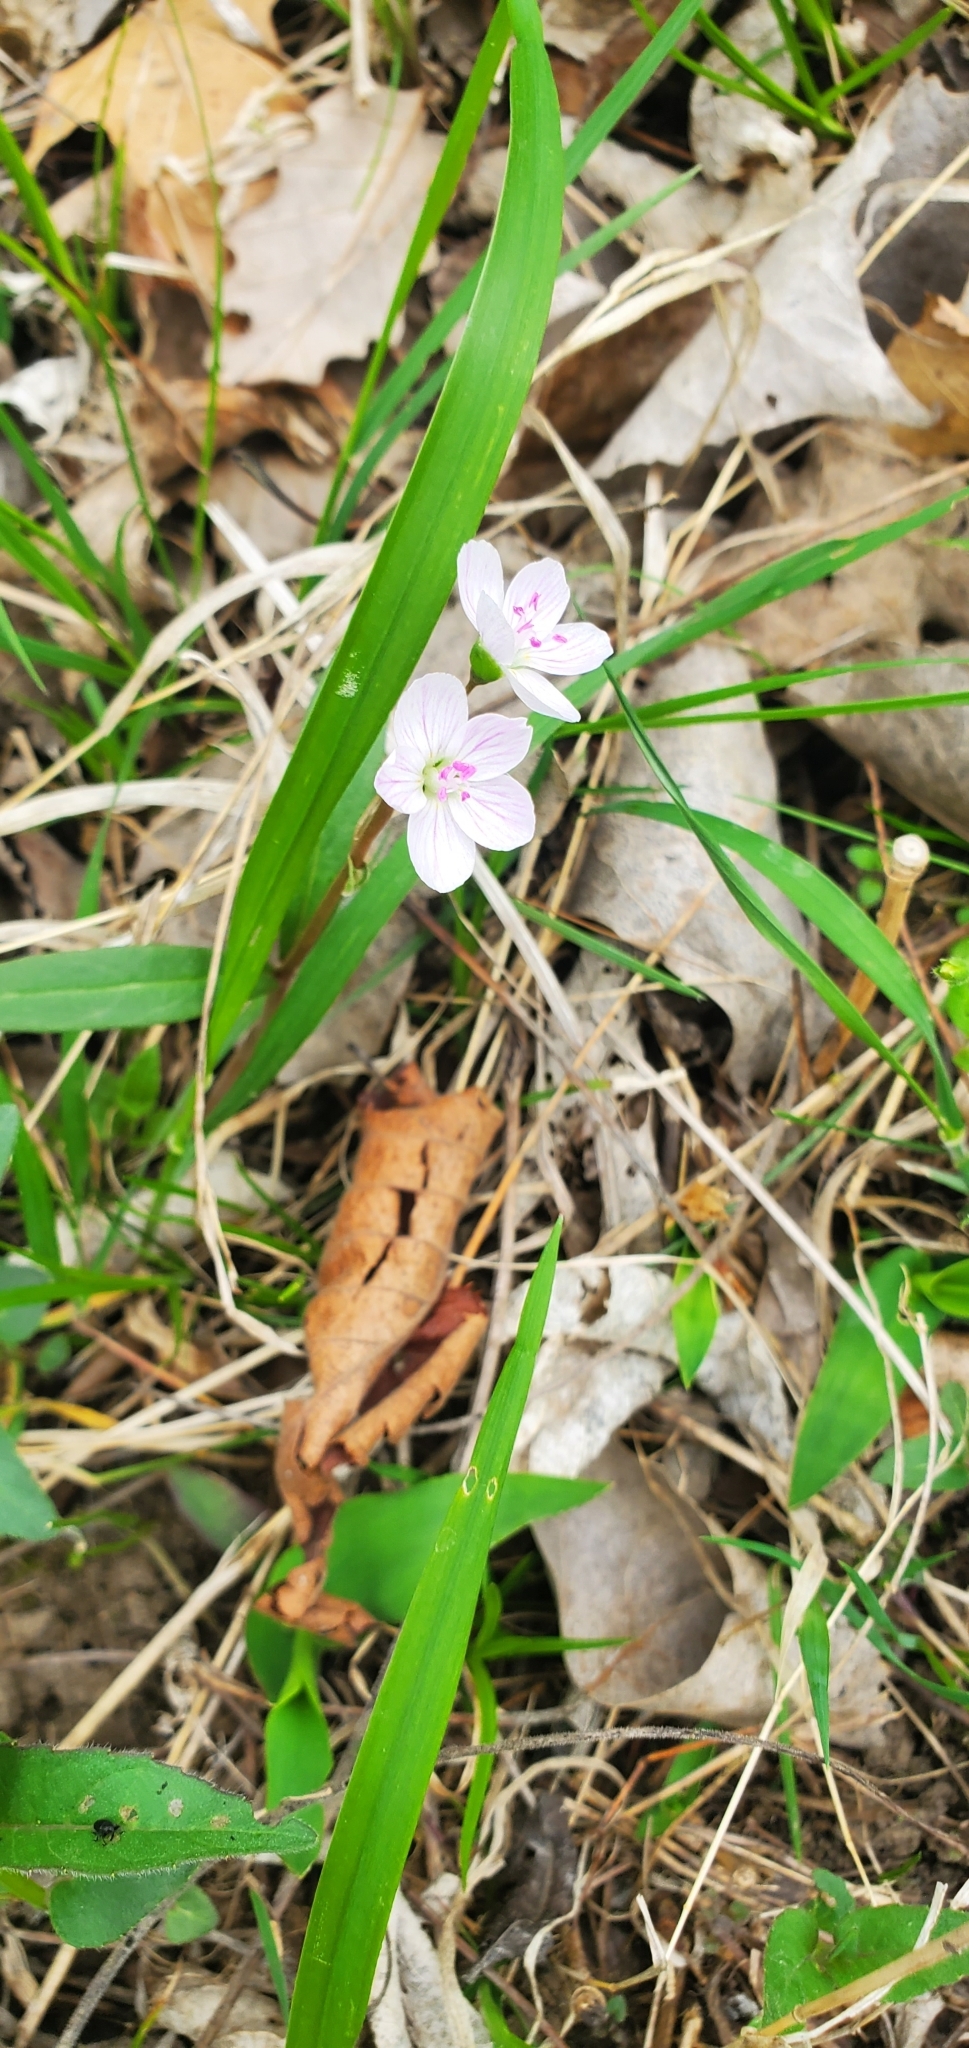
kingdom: Plantae
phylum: Tracheophyta
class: Magnoliopsida
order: Caryophyllales
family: Montiaceae
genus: Claytonia
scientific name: Claytonia virginica
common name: Virginia springbeauty
